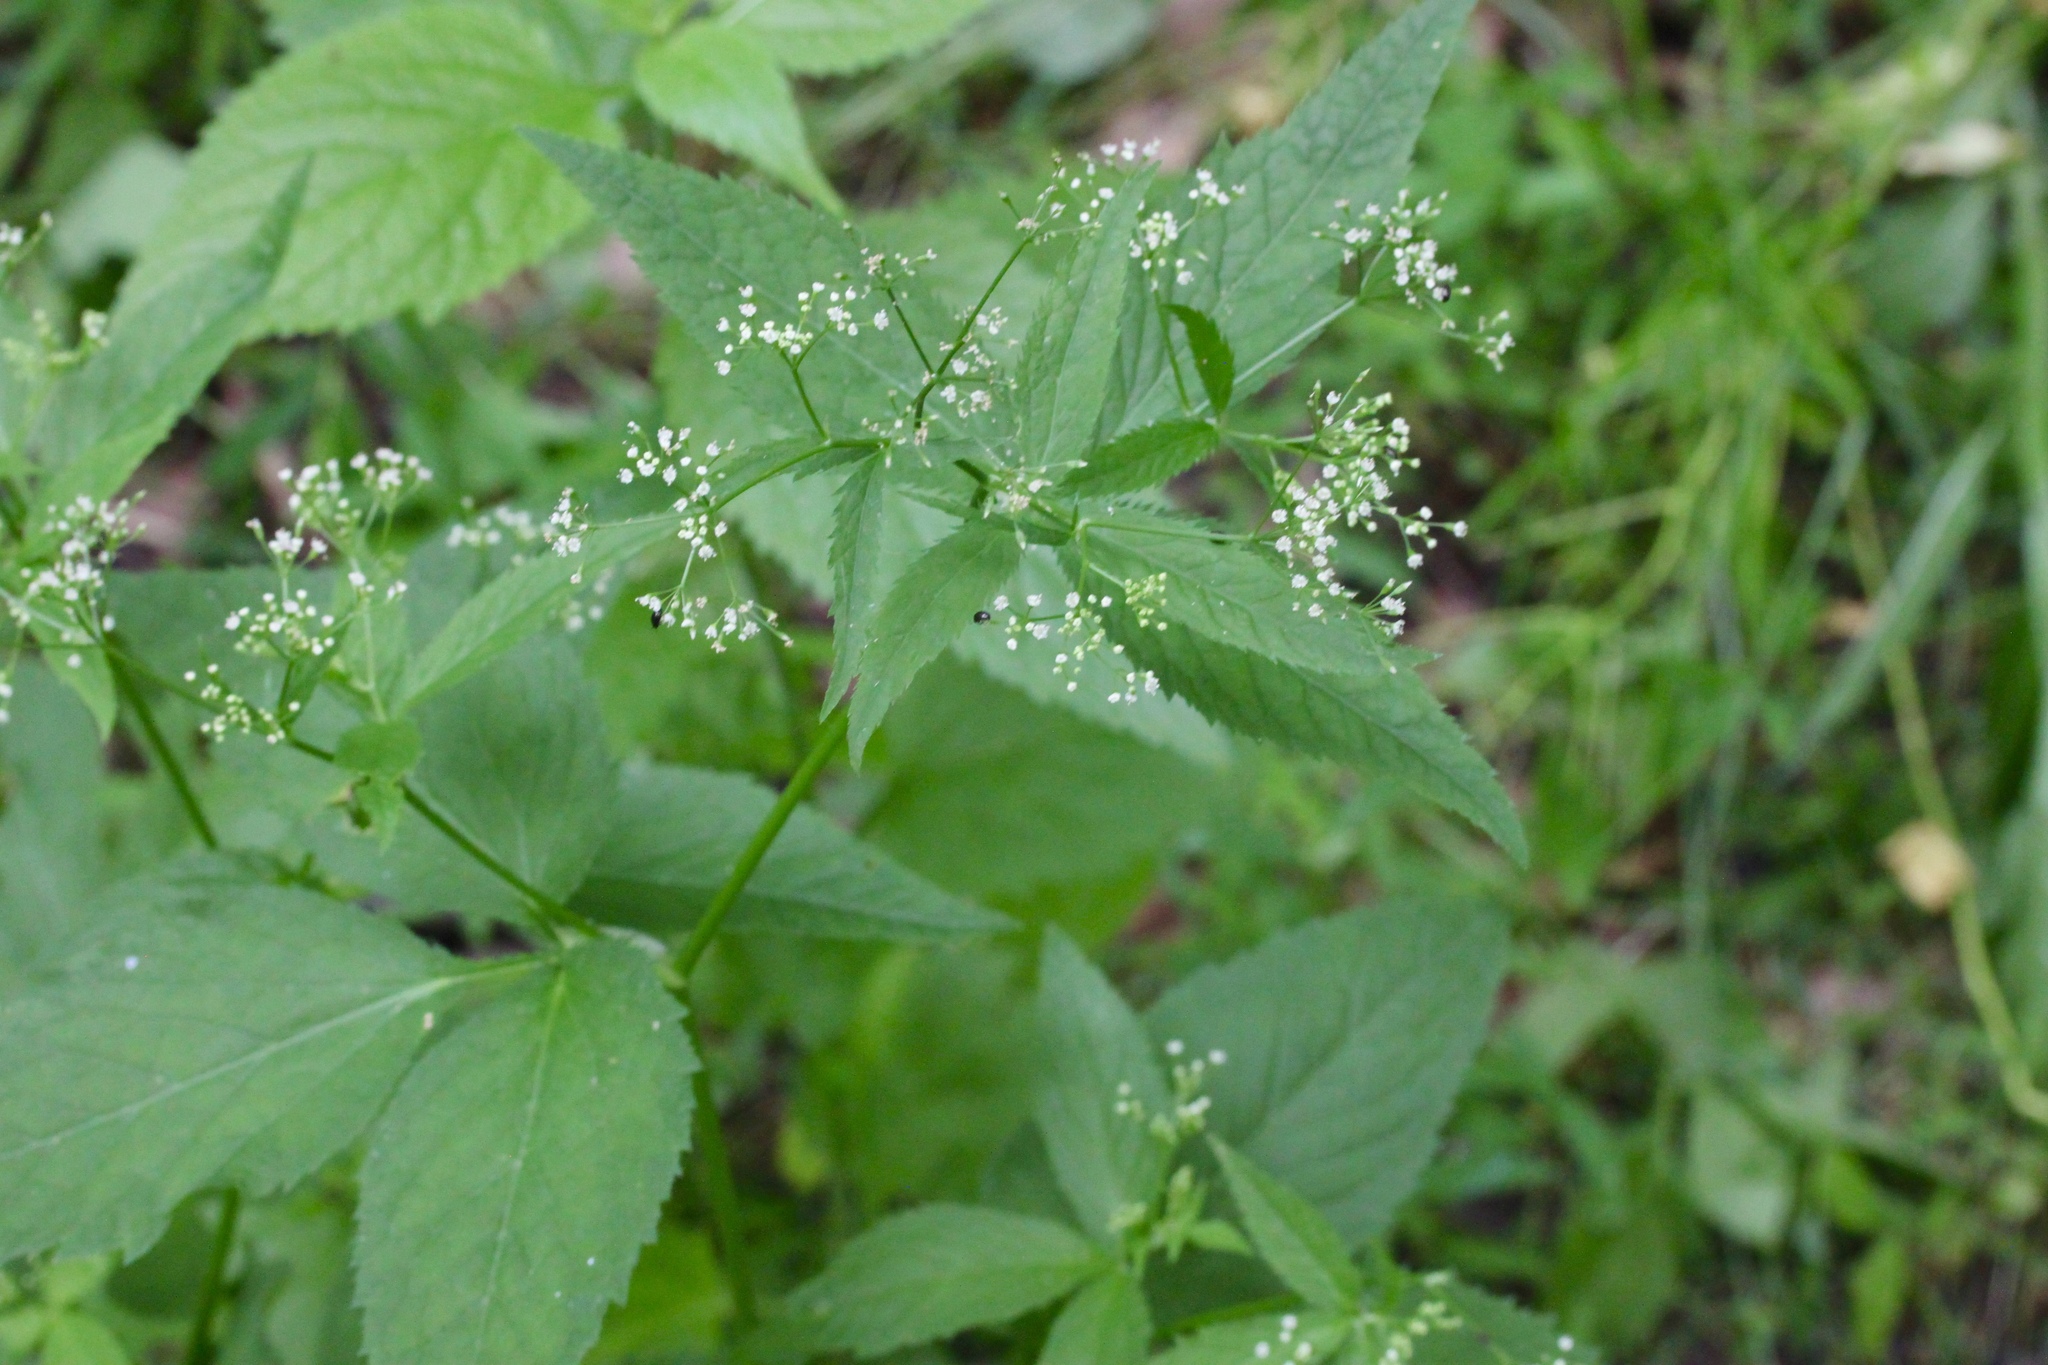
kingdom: Plantae
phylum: Tracheophyta
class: Magnoliopsida
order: Apiales
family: Apiaceae
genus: Cryptotaenia
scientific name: Cryptotaenia canadensis
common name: Honewort
